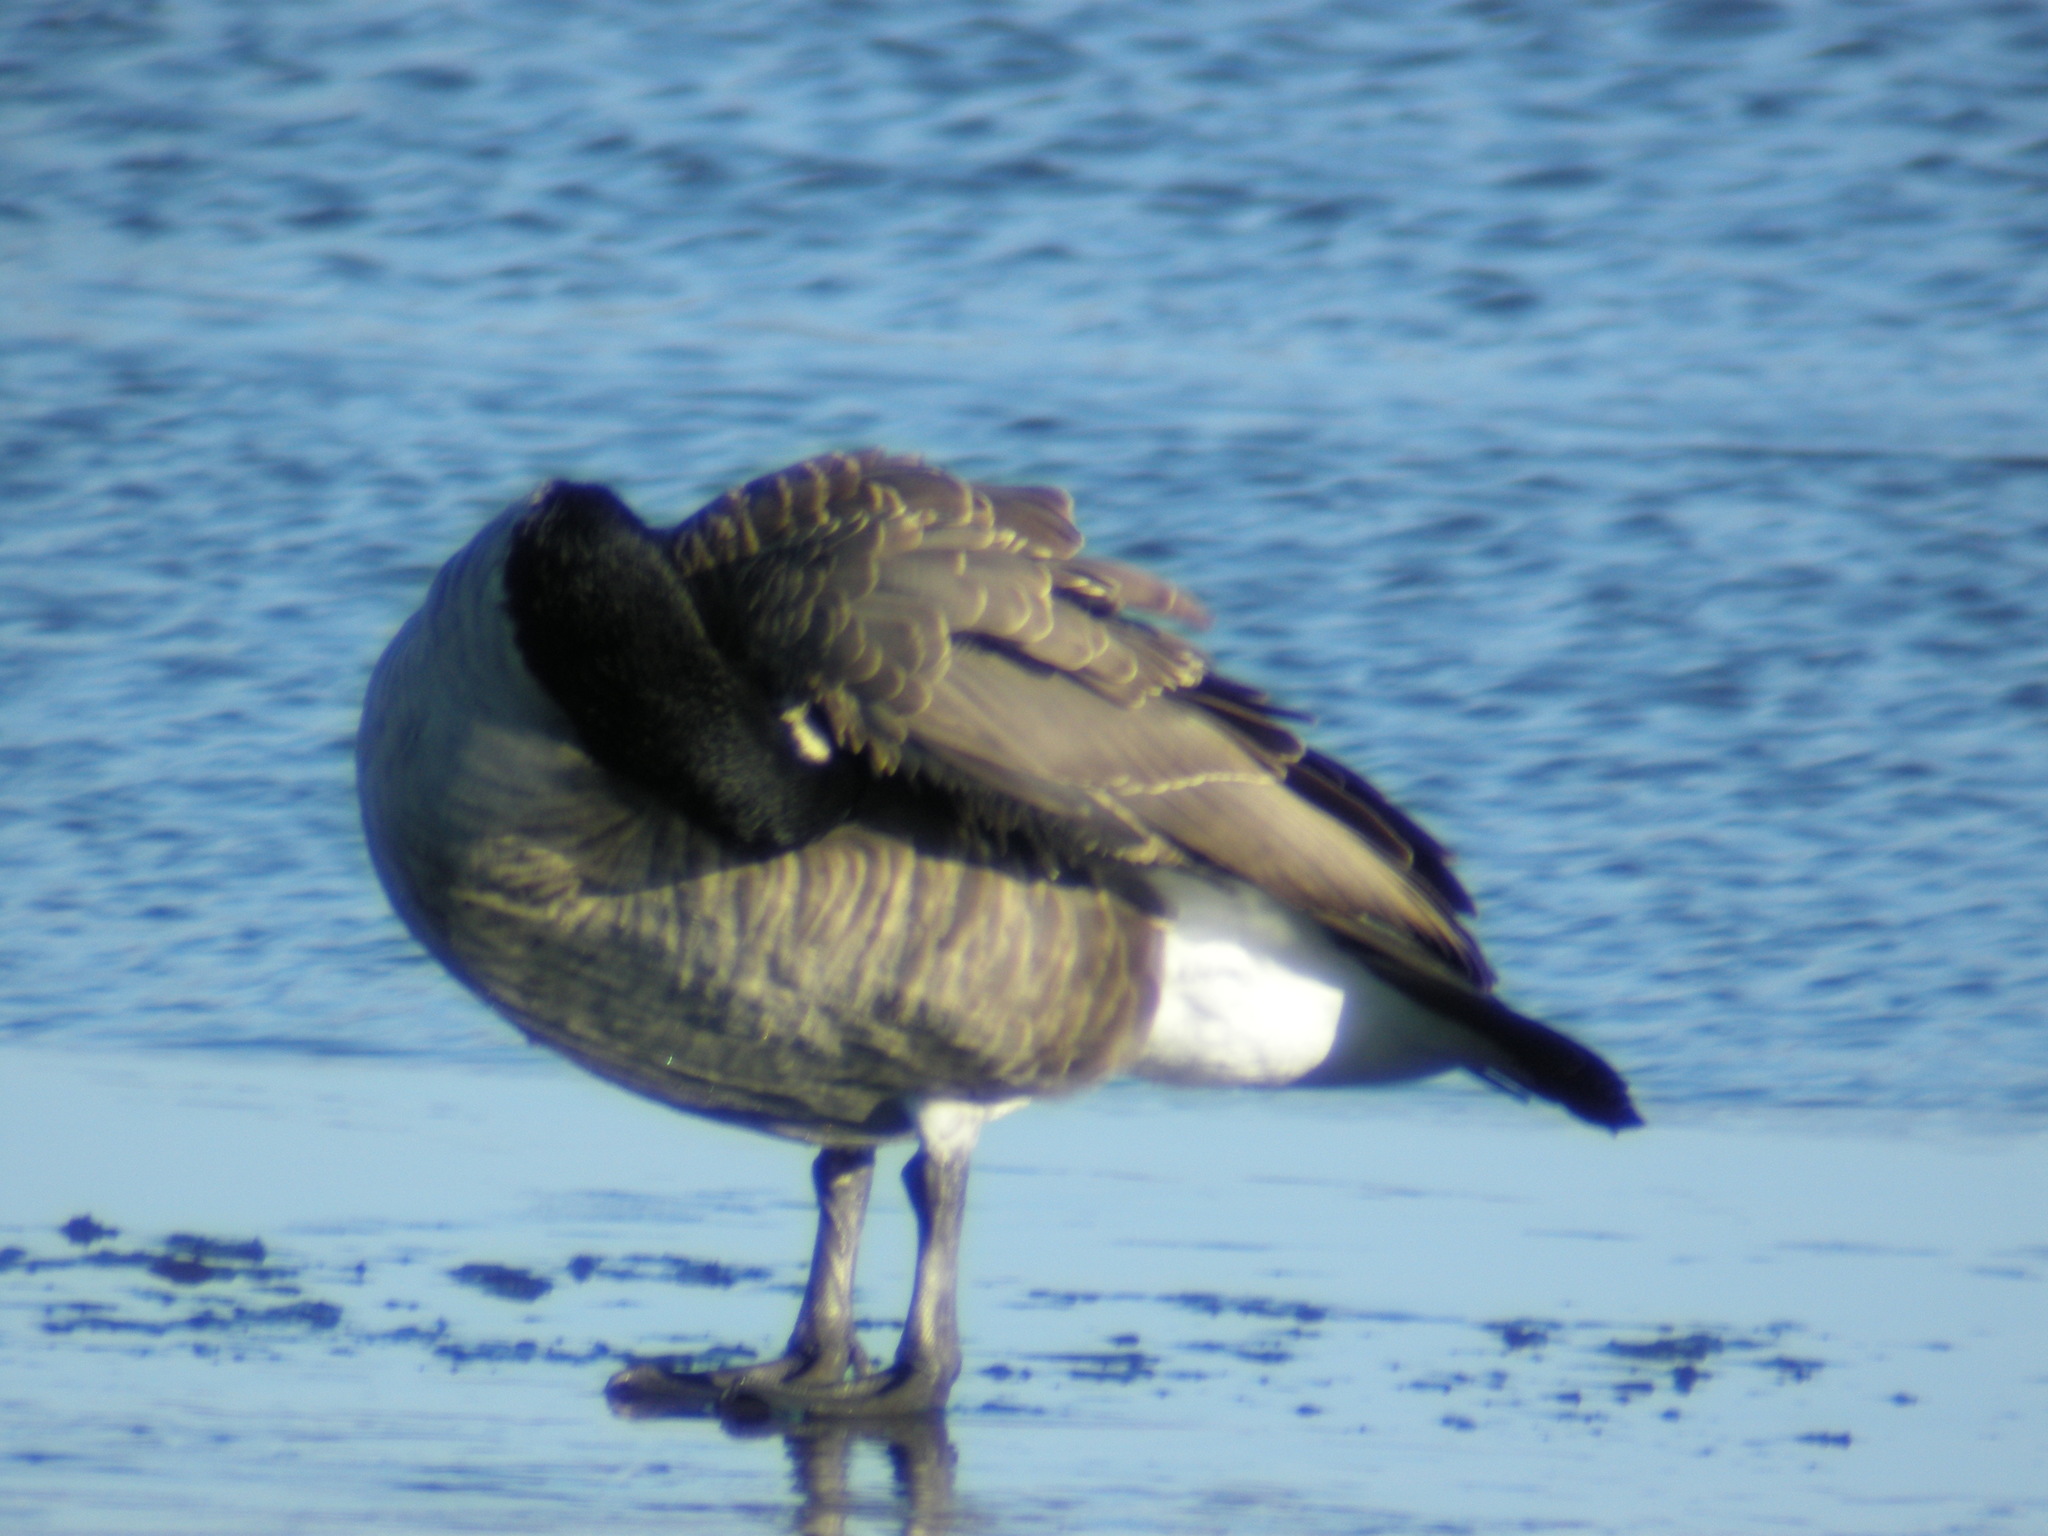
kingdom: Animalia
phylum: Chordata
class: Aves
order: Anseriformes
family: Anatidae
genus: Branta
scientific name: Branta canadensis
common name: Canada goose
